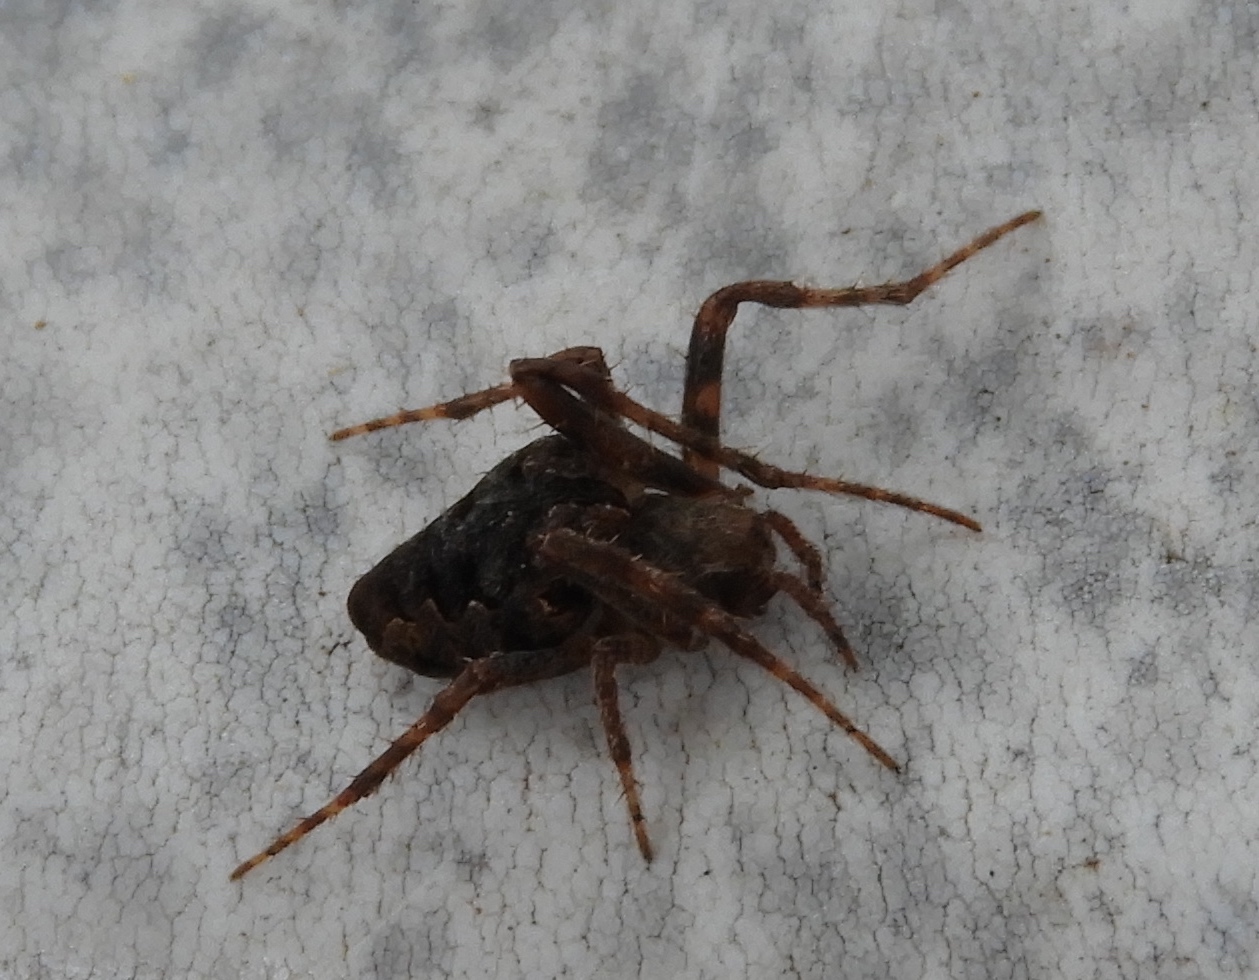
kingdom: Animalia
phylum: Arthropoda
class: Arachnida
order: Araneae
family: Araneidae
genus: Eustala
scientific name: Eustala
